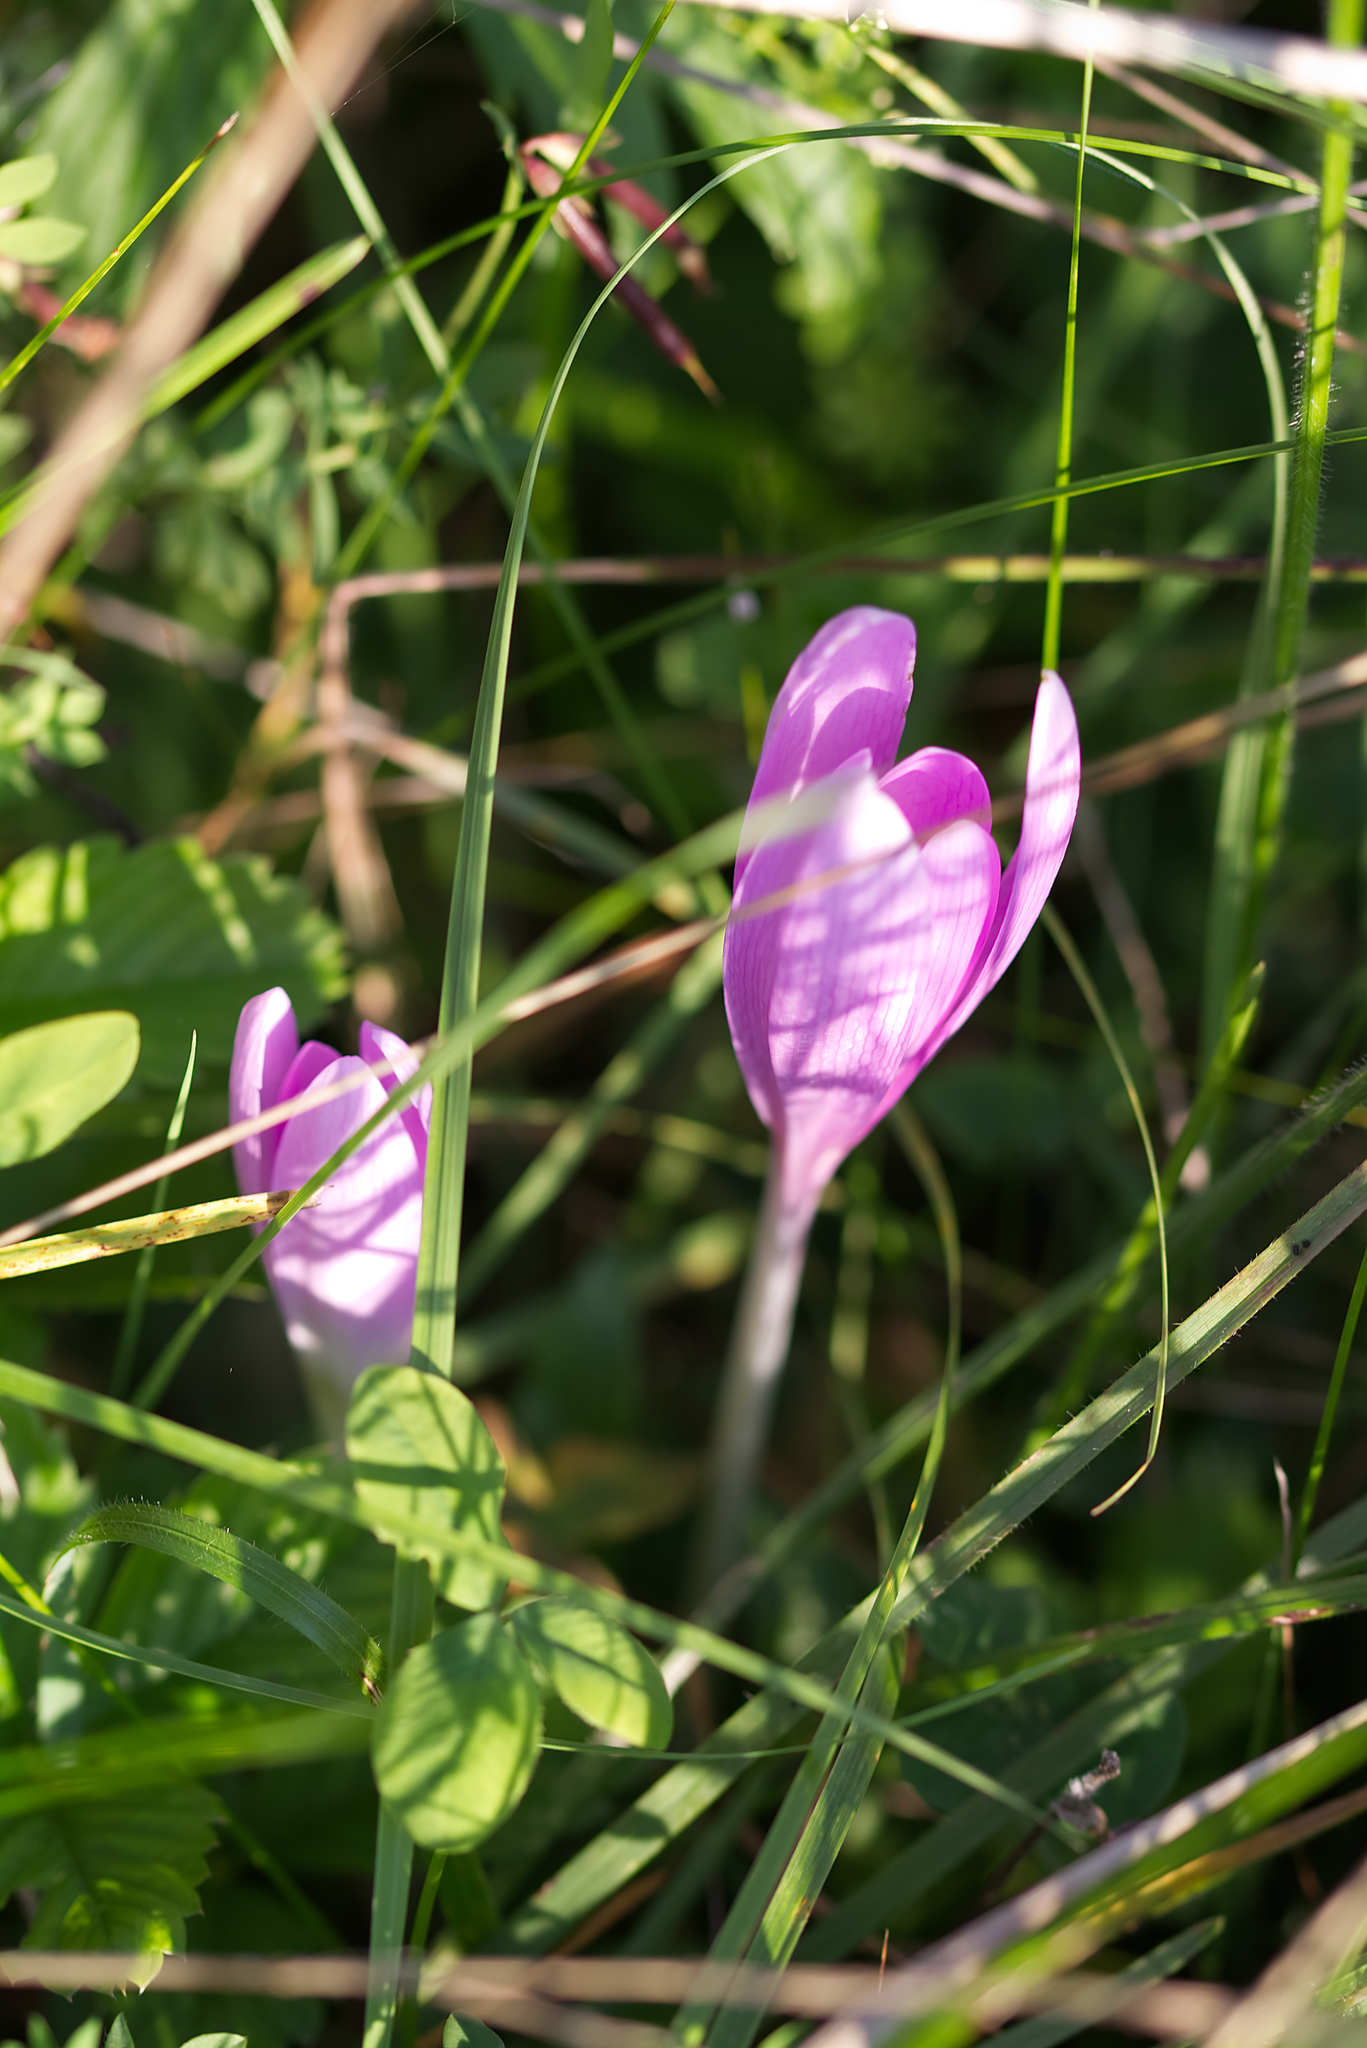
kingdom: Plantae
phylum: Tracheophyta
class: Liliopsida
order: Liliales
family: Colchicaceae
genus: Colchicum
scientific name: Colchicum autumnale
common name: Autumn crocus
